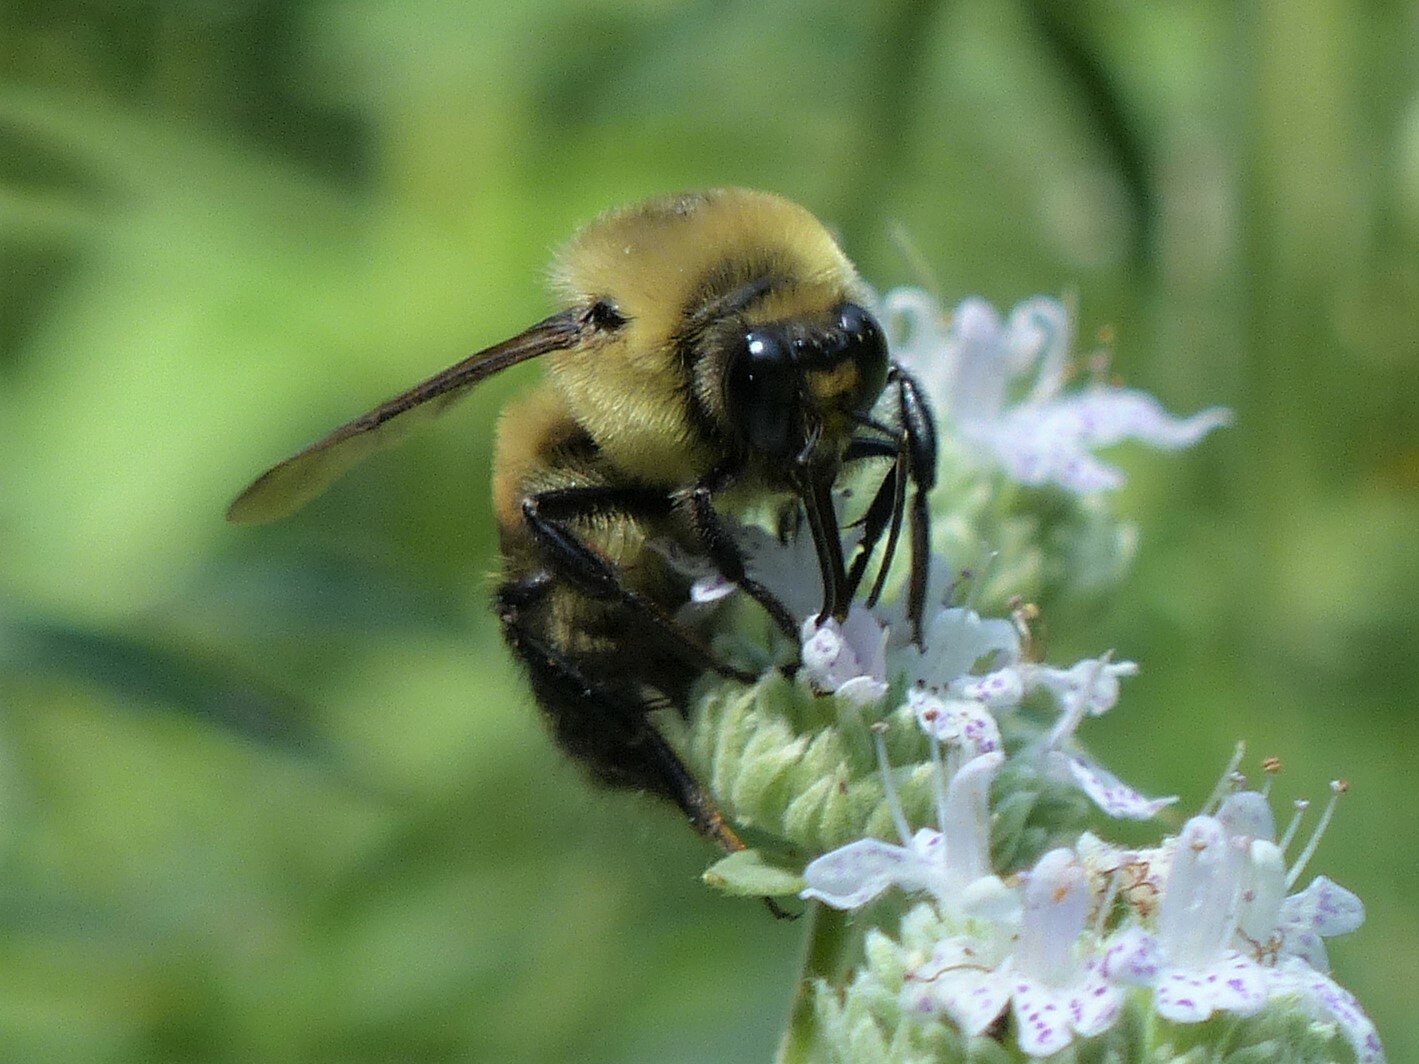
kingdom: Animalia
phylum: Arthropoda
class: Insecta
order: Hymenoptera
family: Apidae
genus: Bombus
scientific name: Bombus griseocollis
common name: Brown-belted bumble bee
